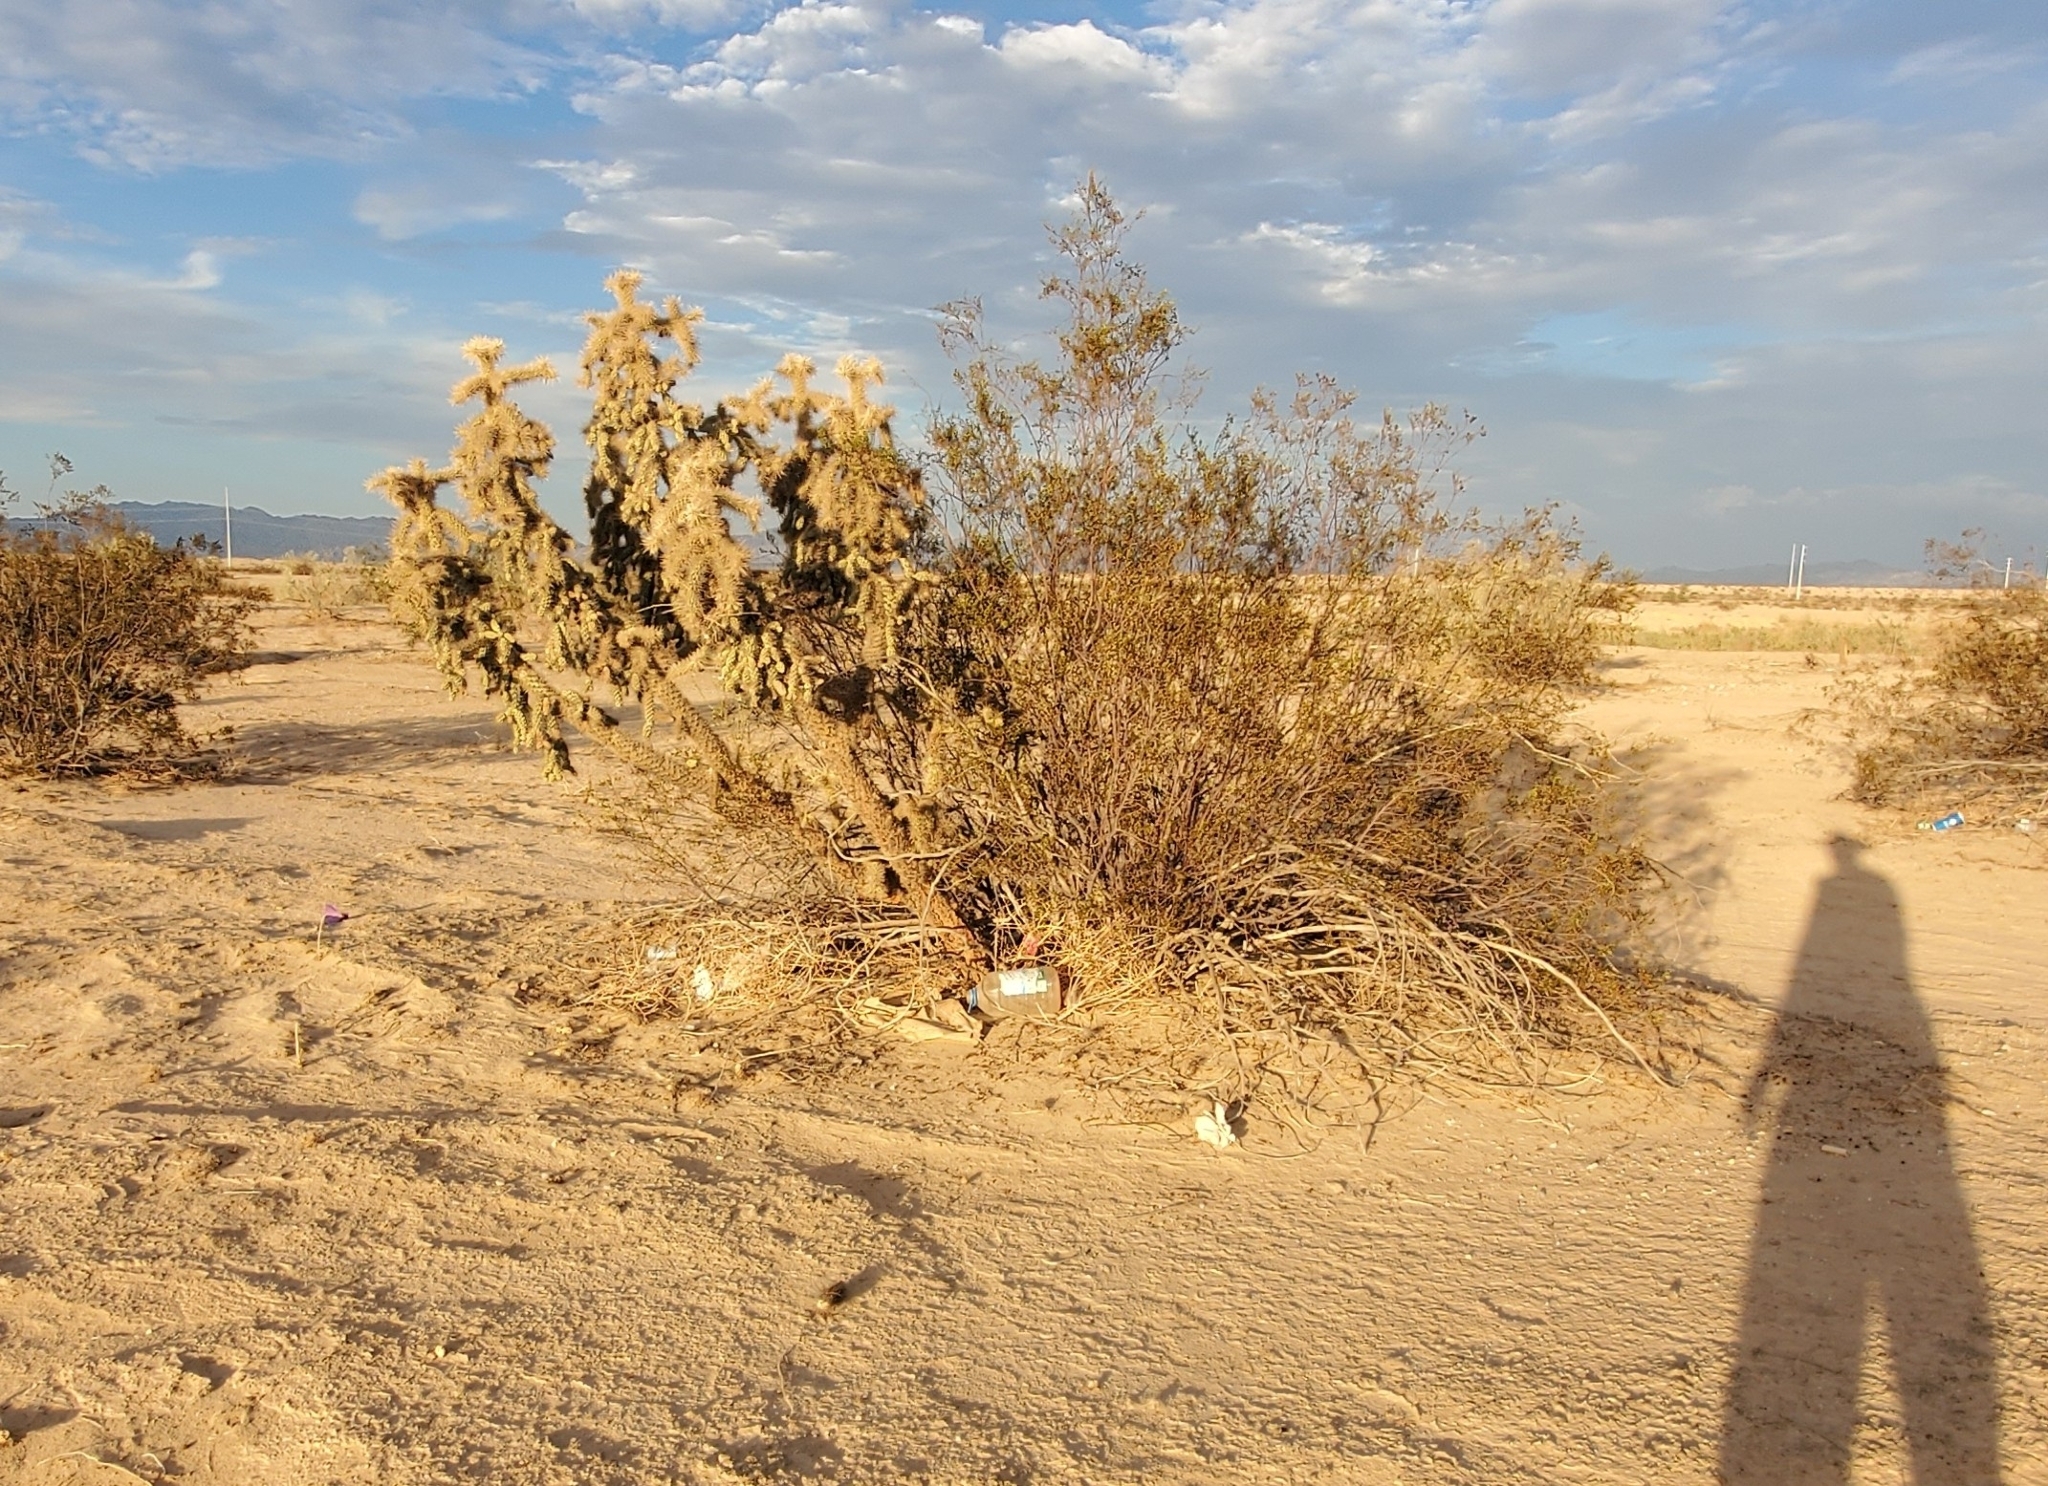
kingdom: Plantae
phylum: Tracheophyta
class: Magnoliopsida
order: Caryophyllales
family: Cactaceae
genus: Cylindropuntia
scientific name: Cylindropuntia munzii
